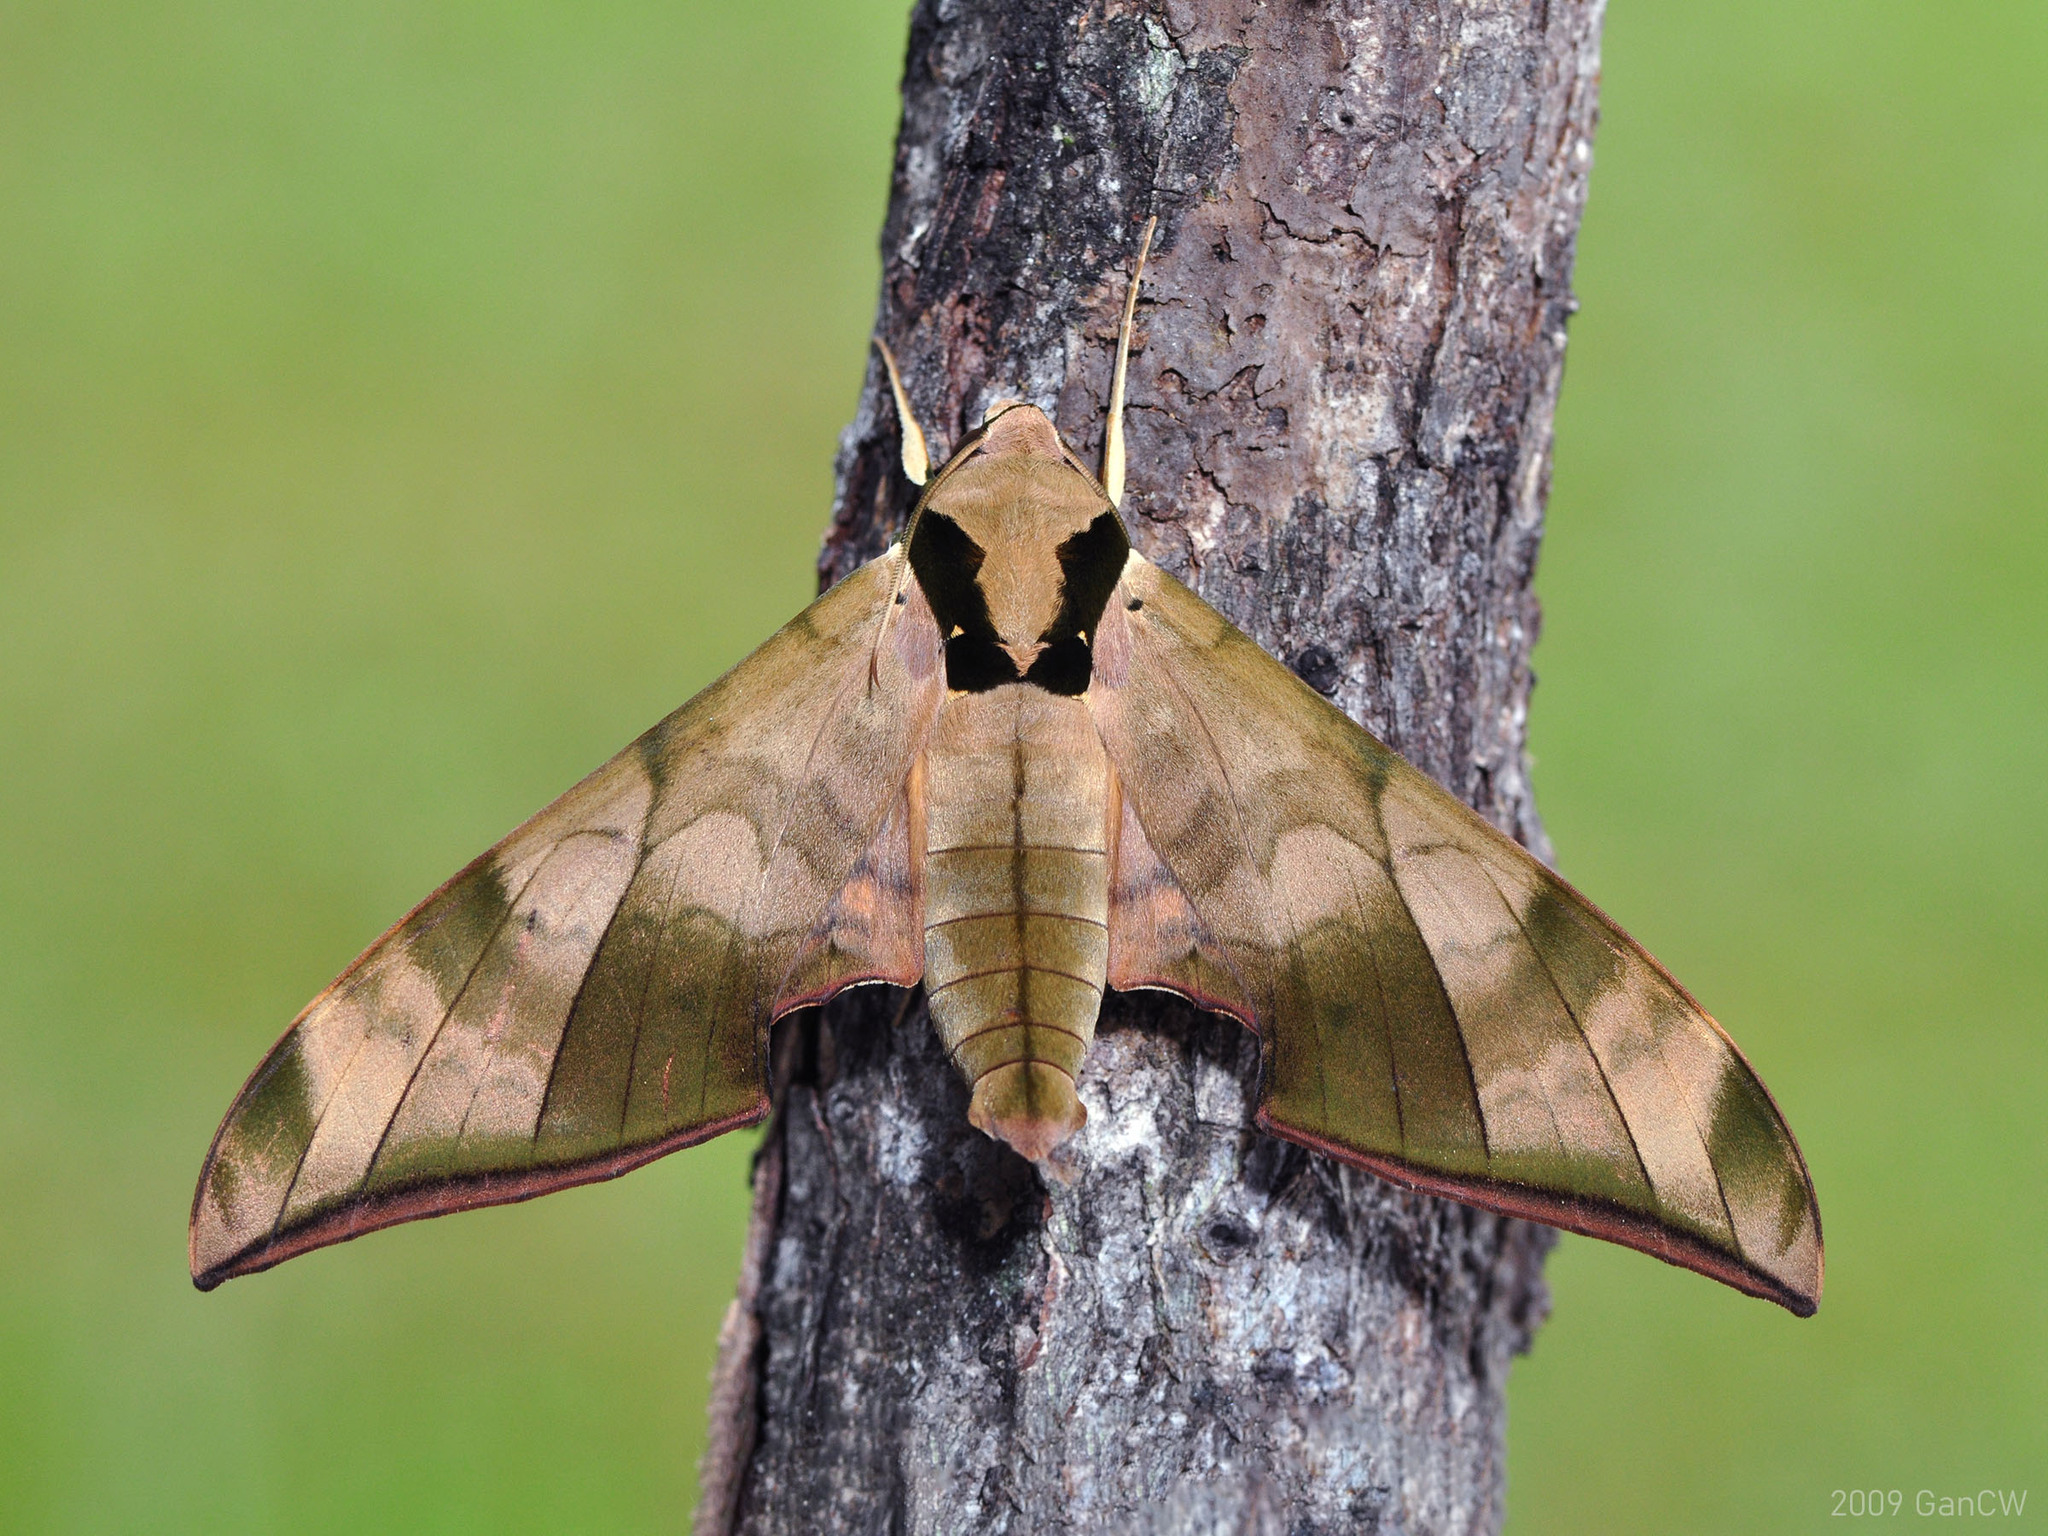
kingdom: Animalia
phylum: Arthropoda
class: Insecta
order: Lepidoptera
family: Sphingidae
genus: Ambulyx
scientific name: Ambulyx tattina
